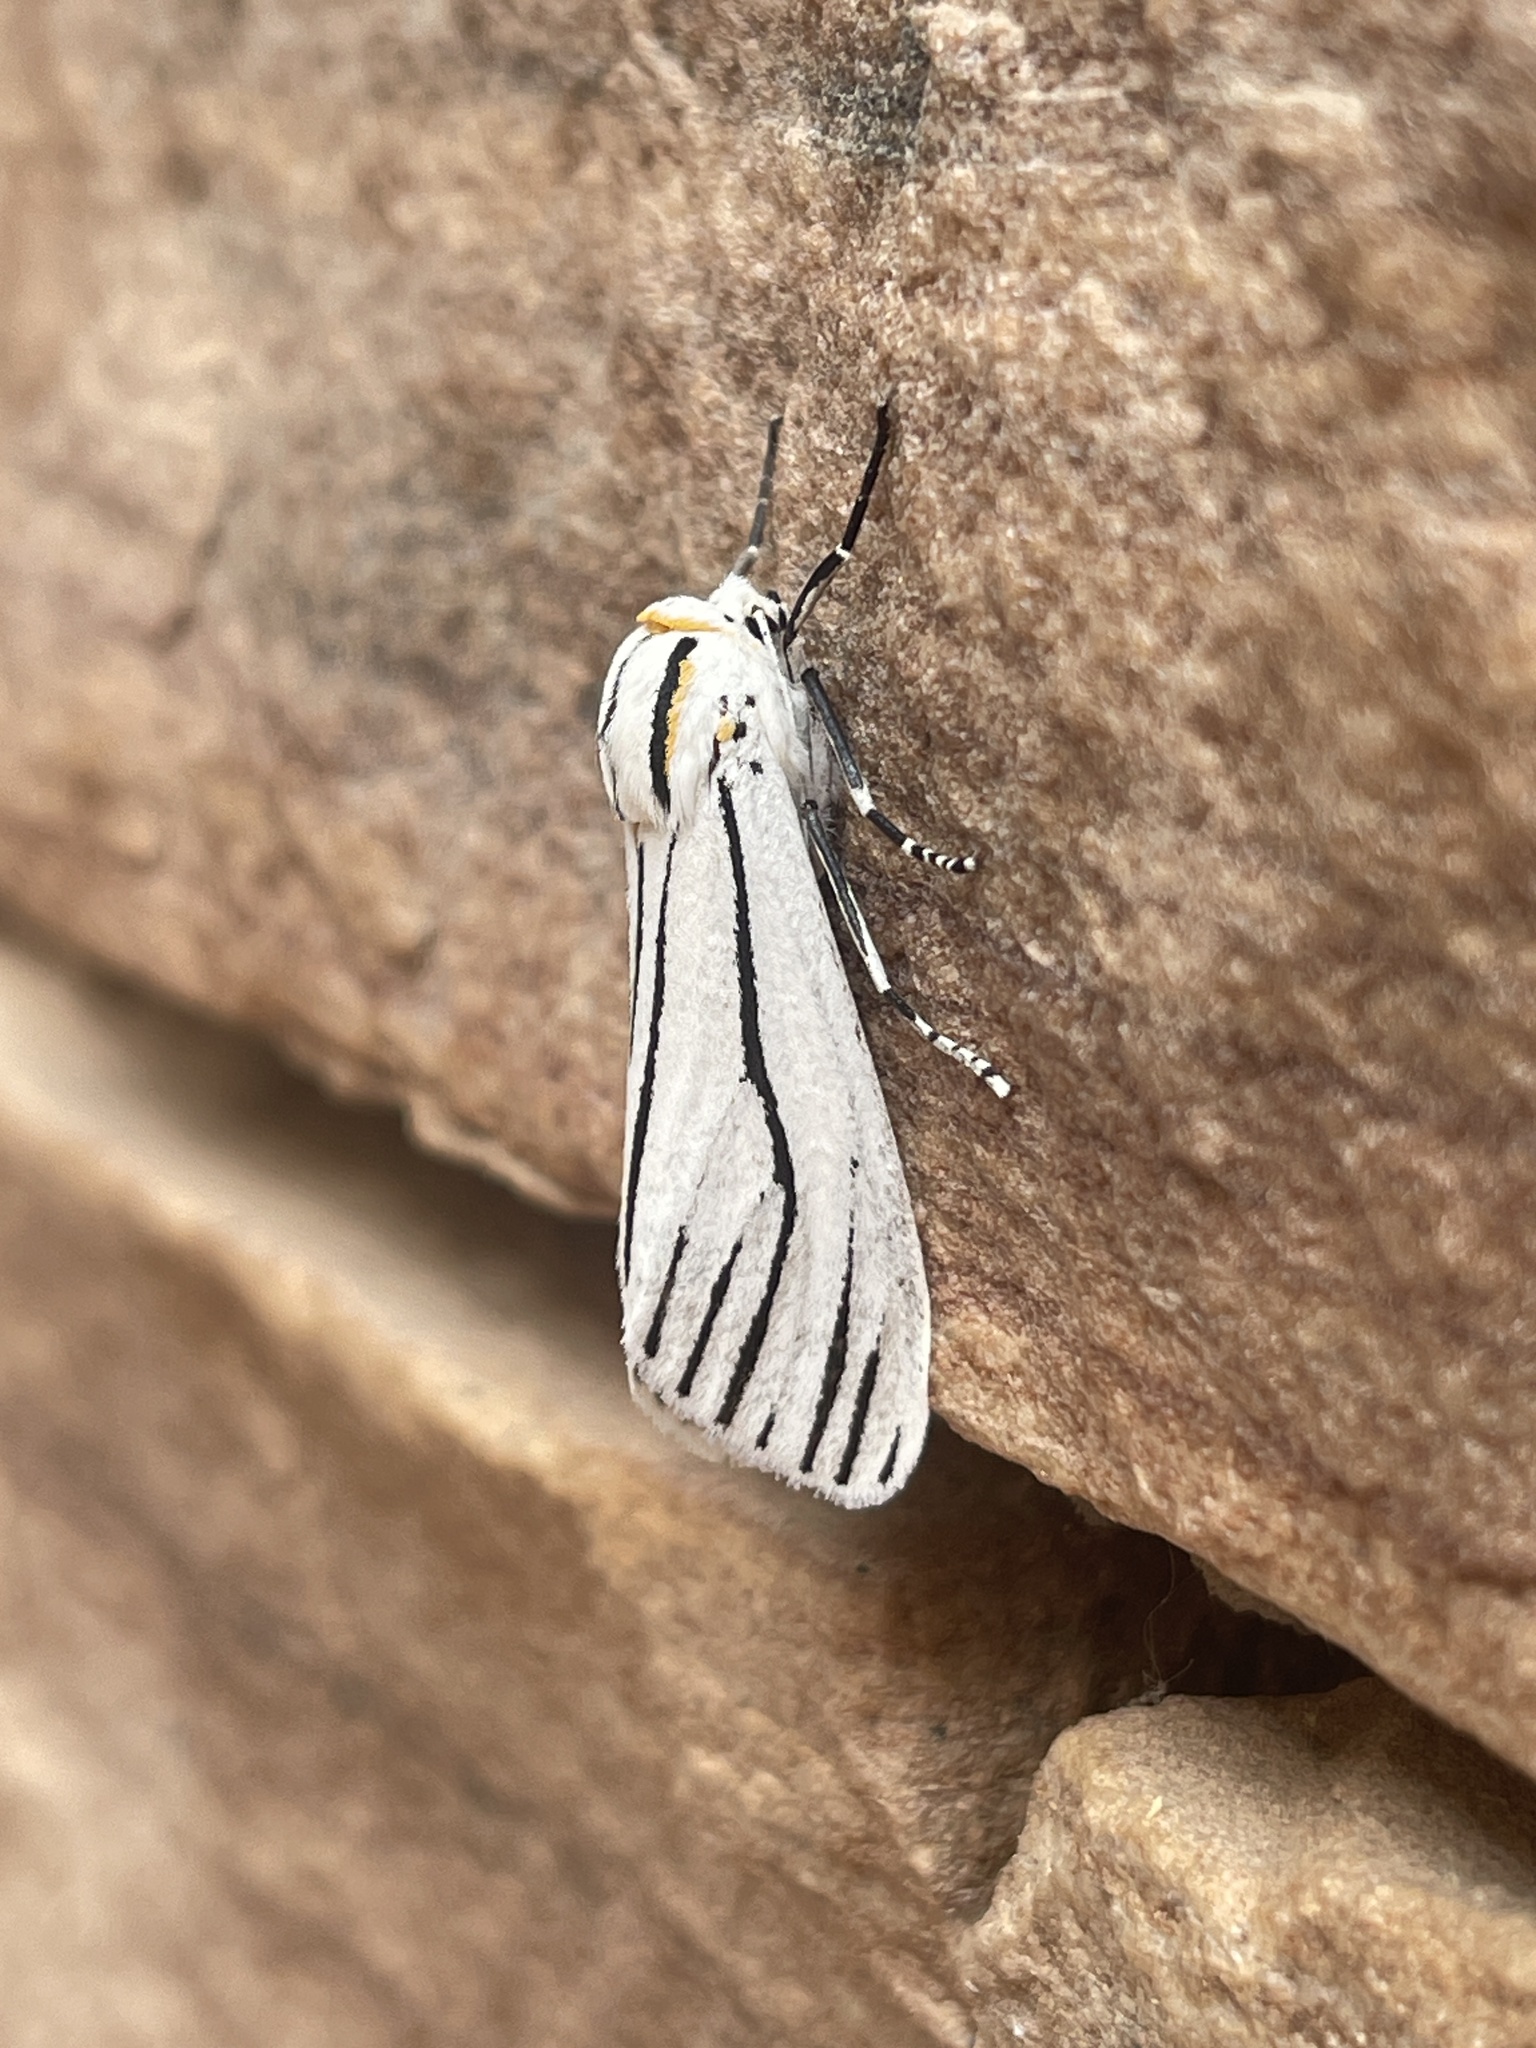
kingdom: Animalia
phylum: Arthropoda
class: Insecta
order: Lepidoptera
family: Erebidae
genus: Ectypia
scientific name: Ectypia clio
